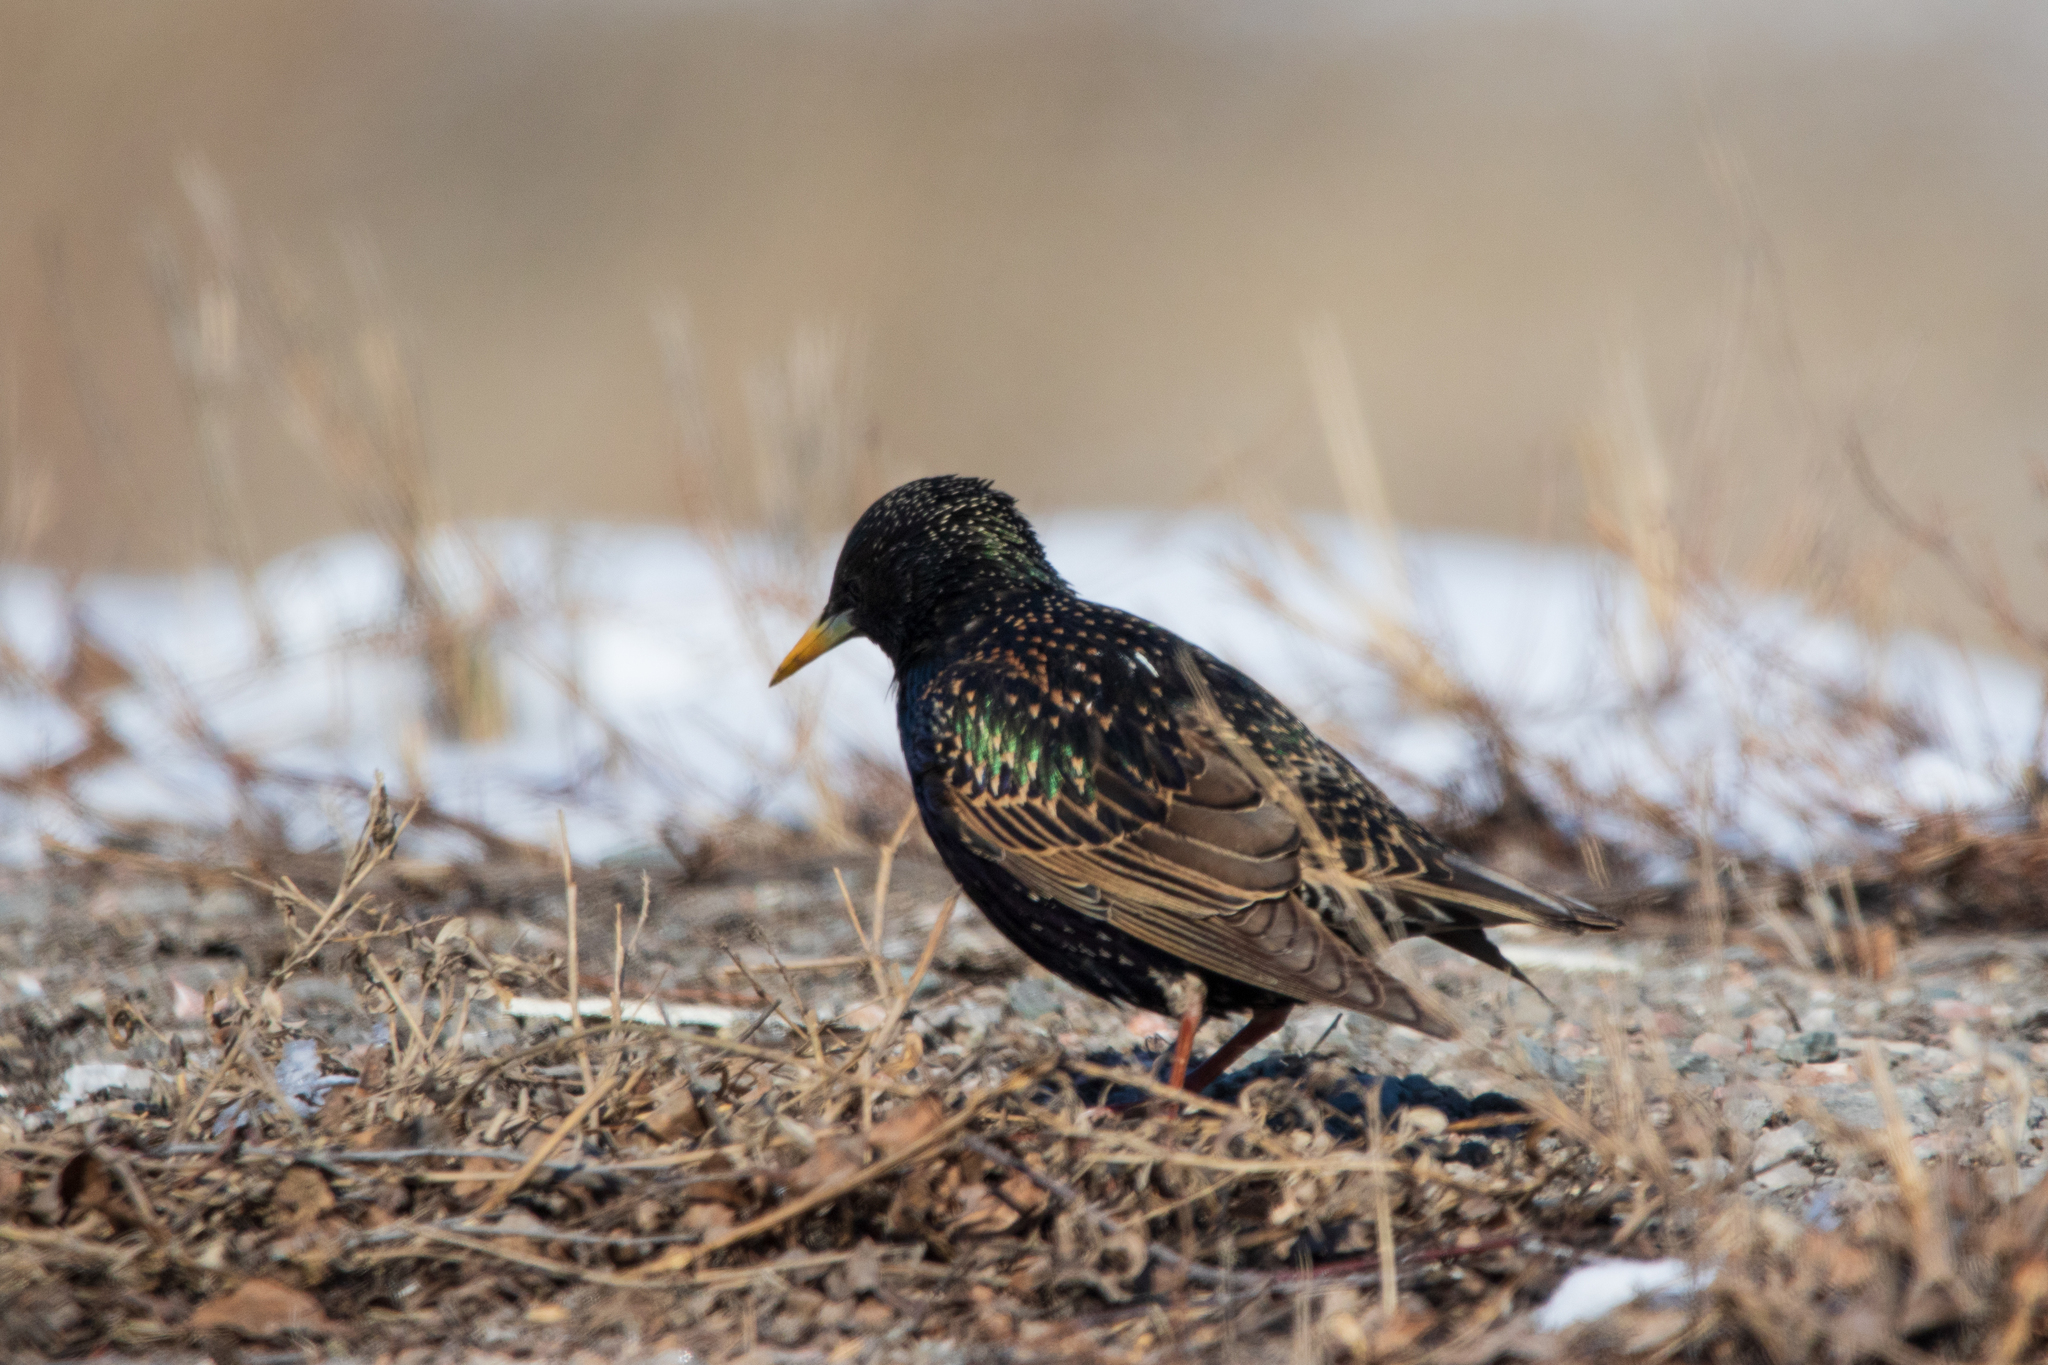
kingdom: Animalia
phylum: Chordata
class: Aves
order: Passeriformes
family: Sturnidae
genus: Sturnus
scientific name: Sturnus vulgaris
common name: Common starling
